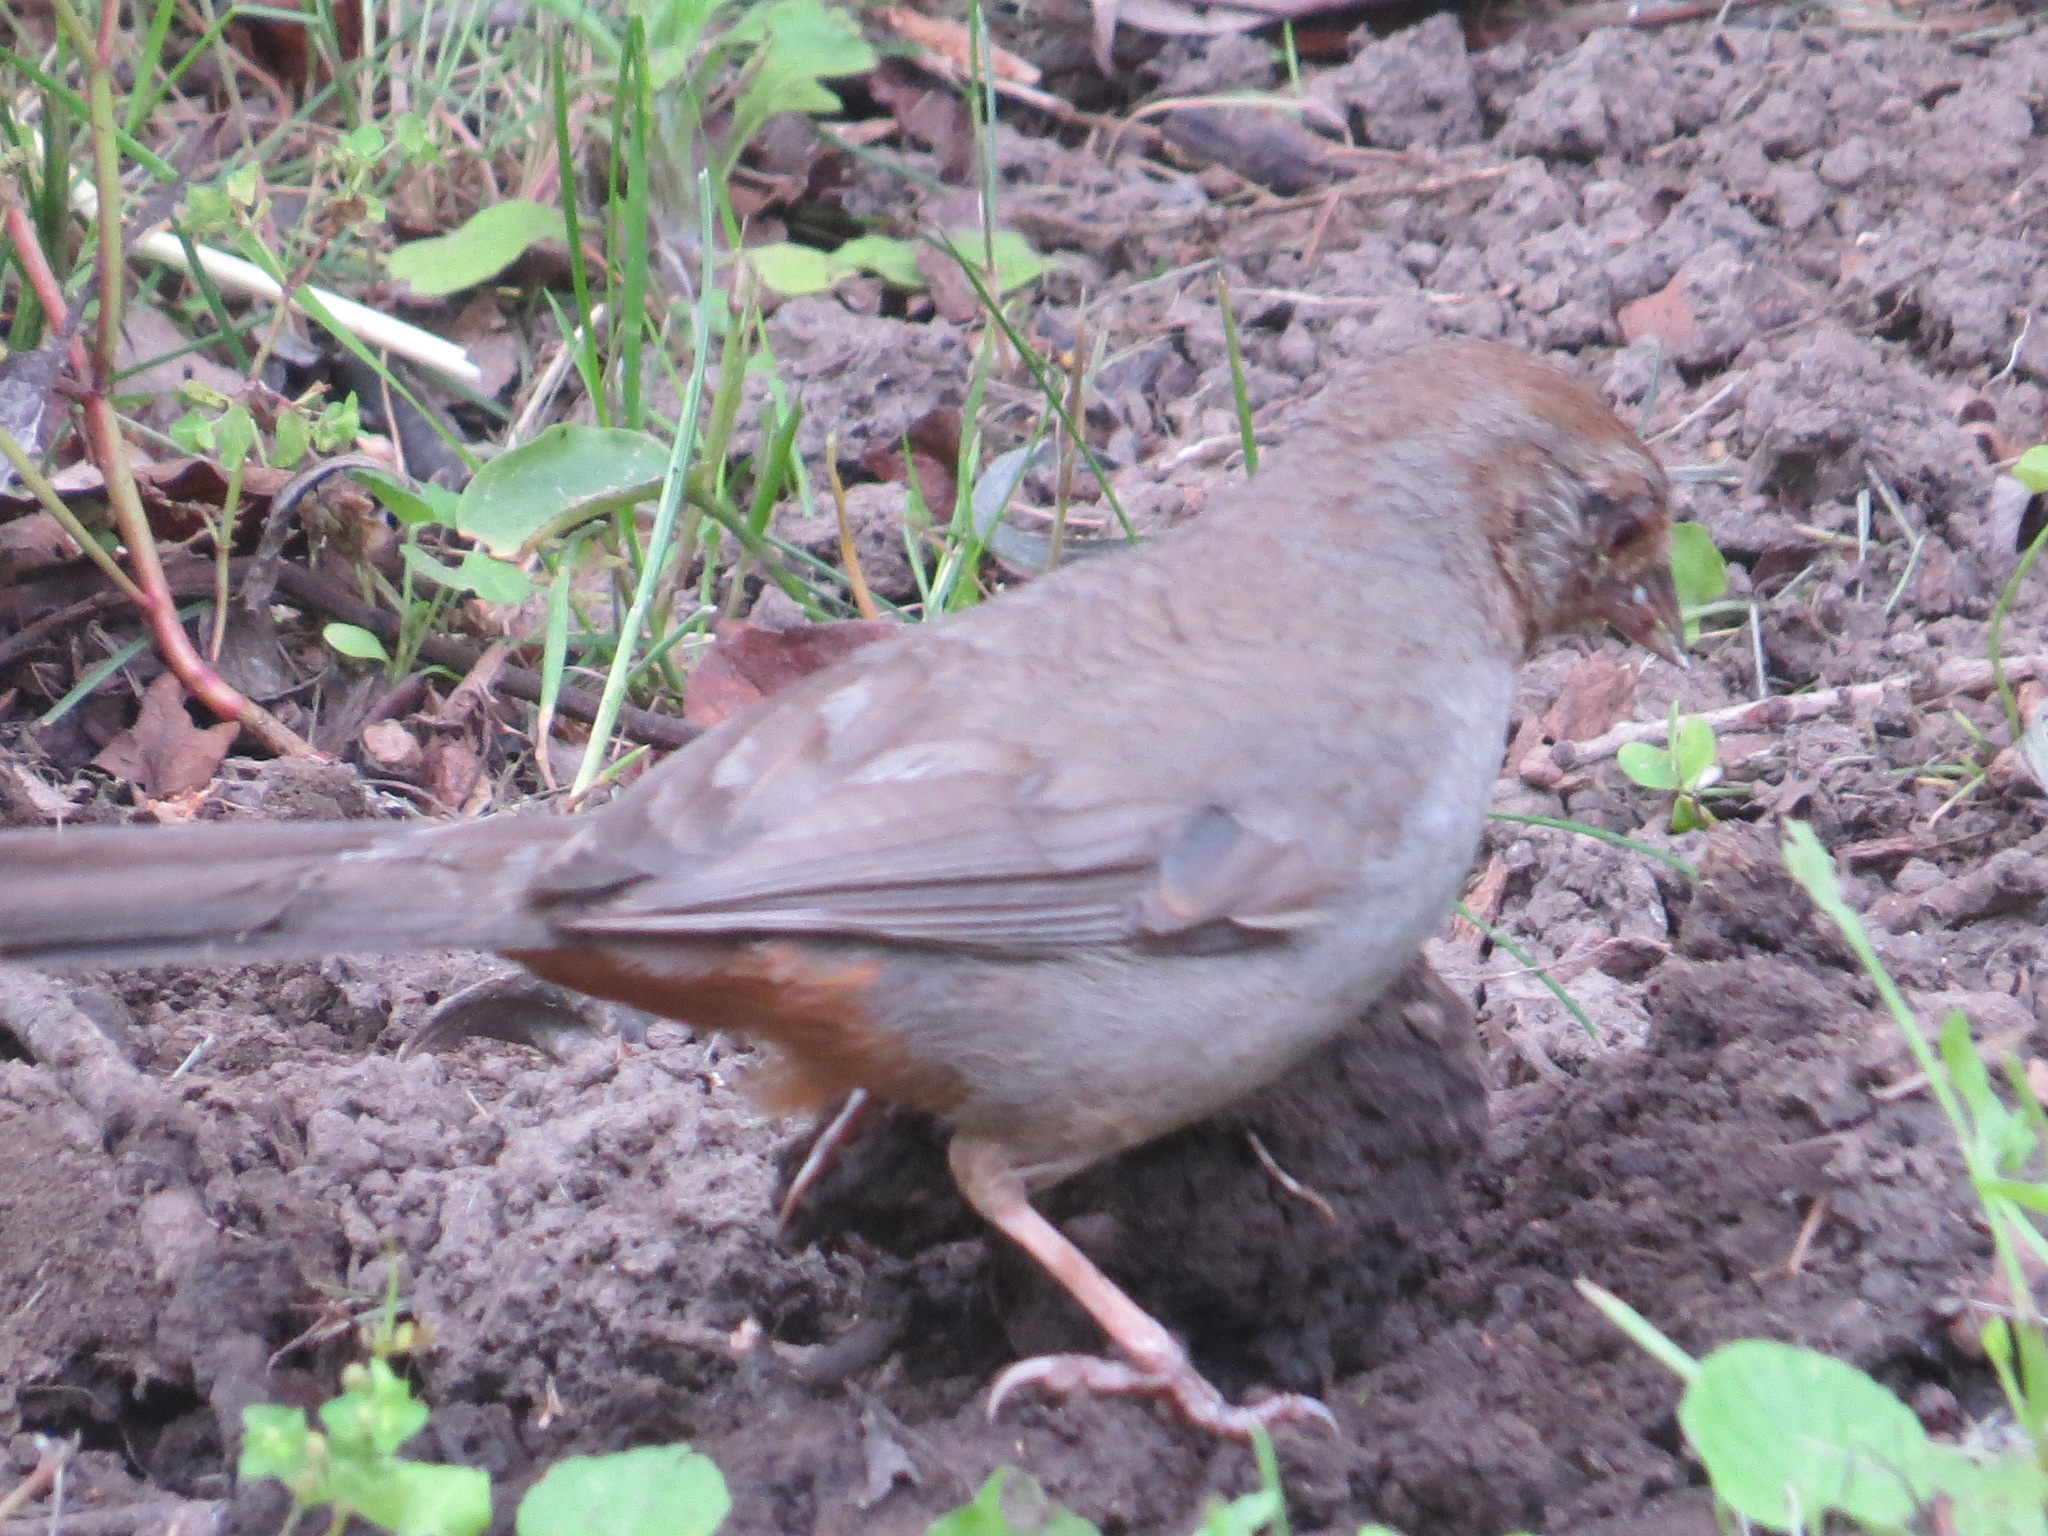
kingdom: Animalia
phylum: Chordata
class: Aves
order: Passeriformes
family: Passerellidae
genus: Melozone
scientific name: Melozone crissalis
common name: California towhee
